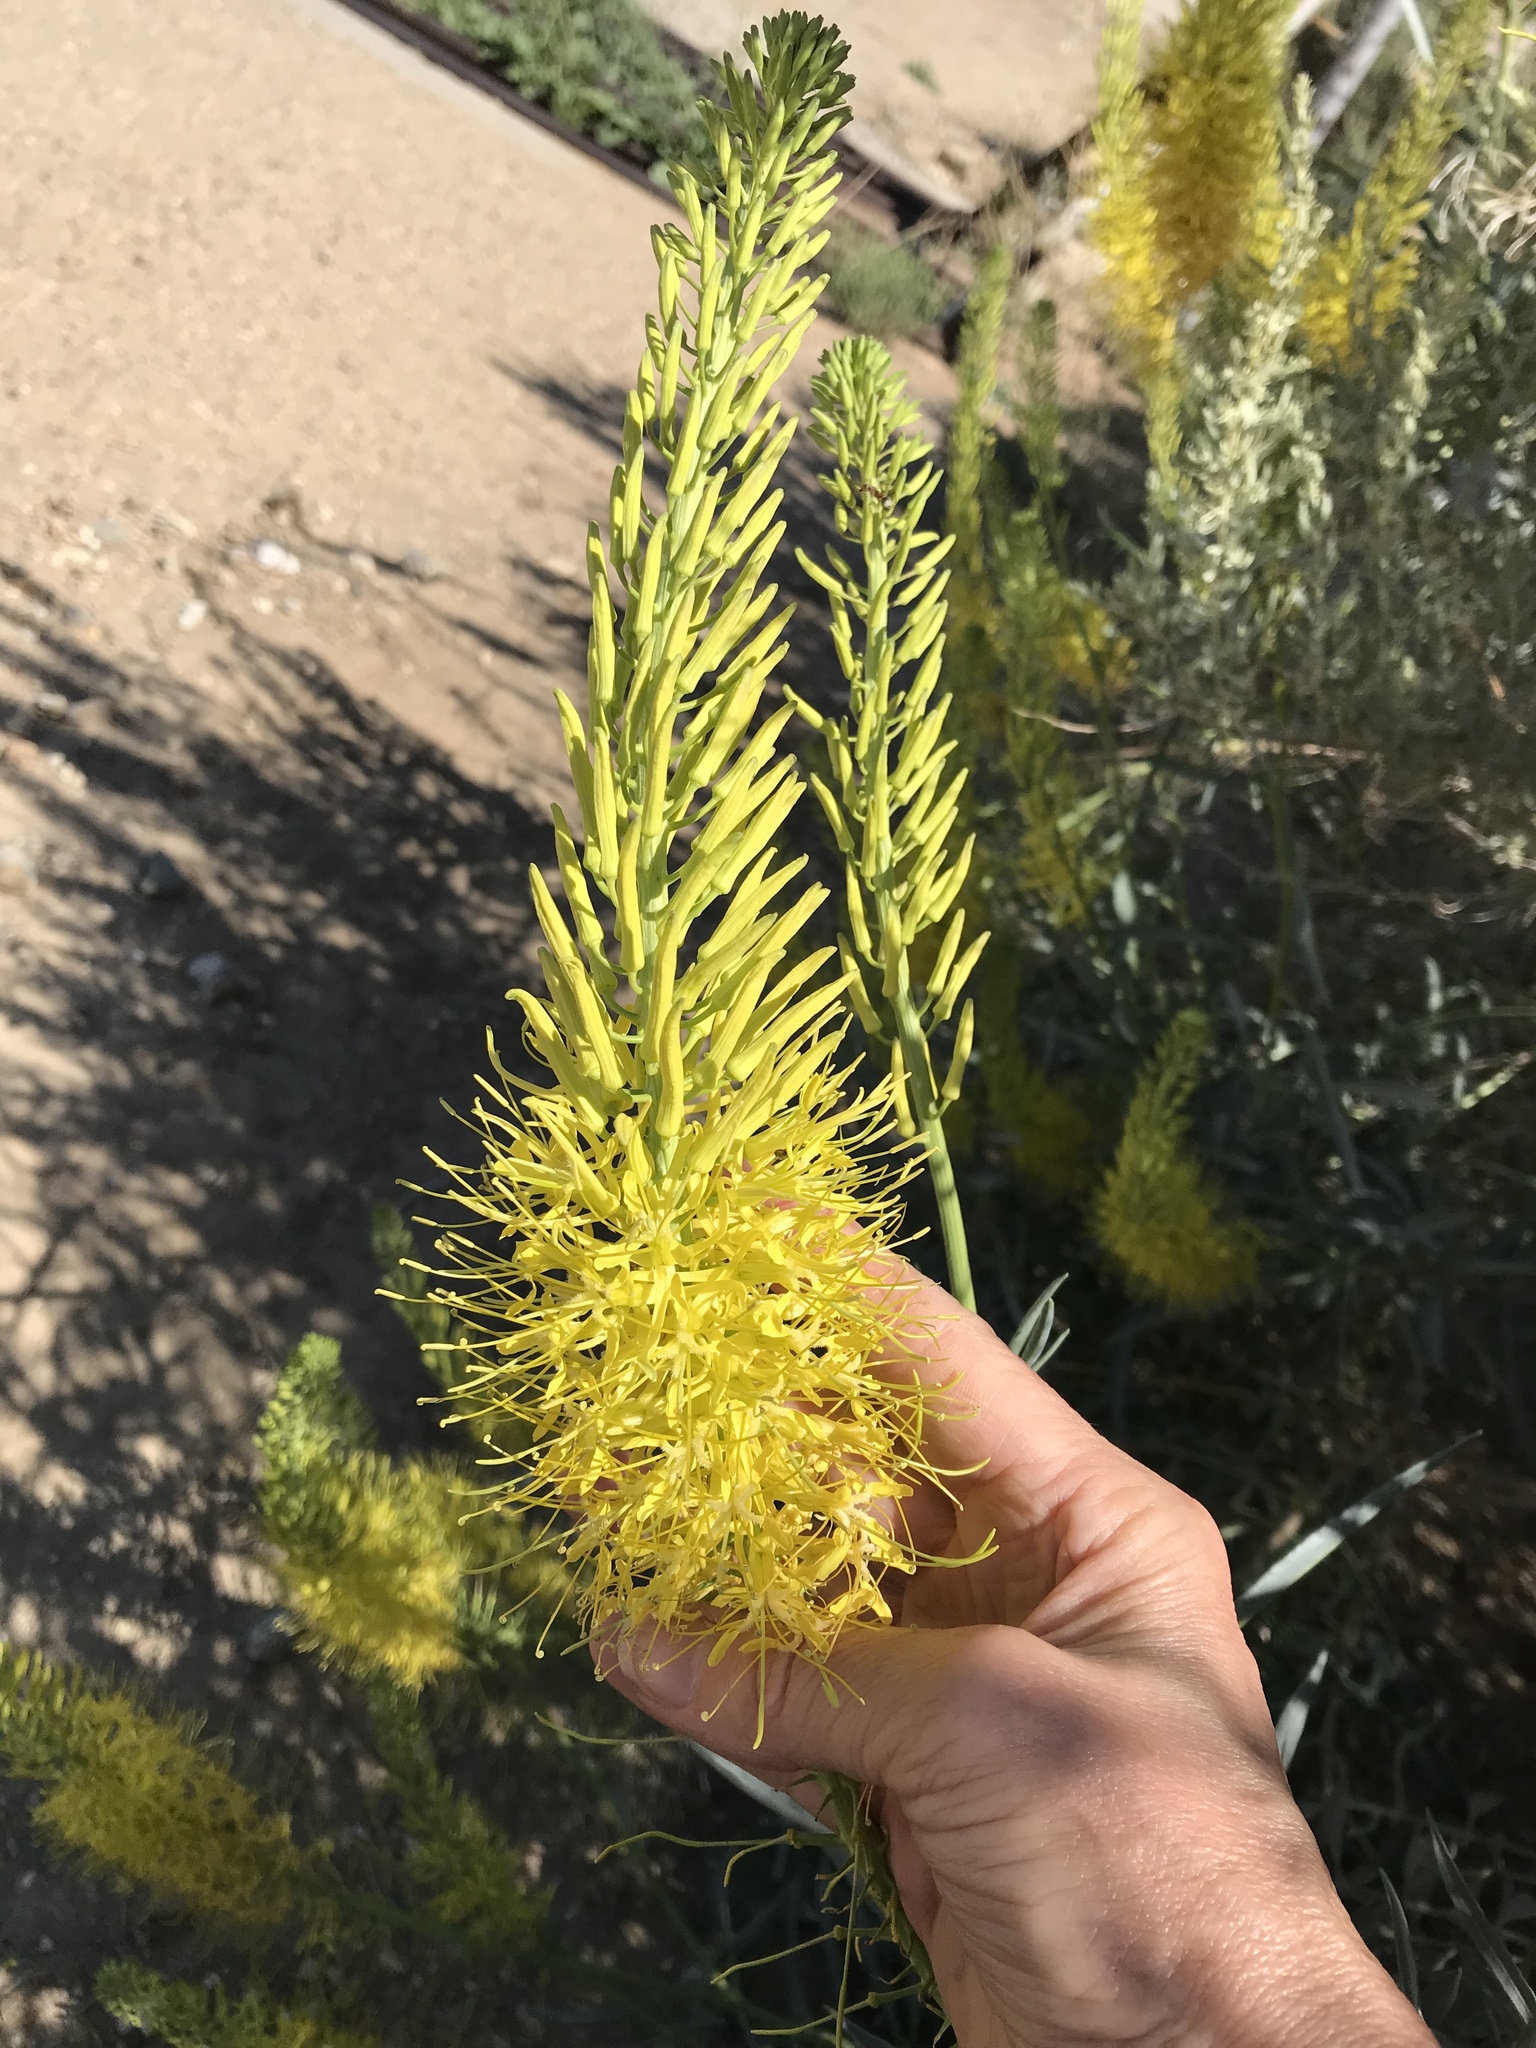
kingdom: Plantae
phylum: Tracheophyta
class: Magnoliopsida
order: Brassicales
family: Brassicaceae
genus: Stanleya
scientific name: Stanleya pinnata
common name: Prince's-plume
